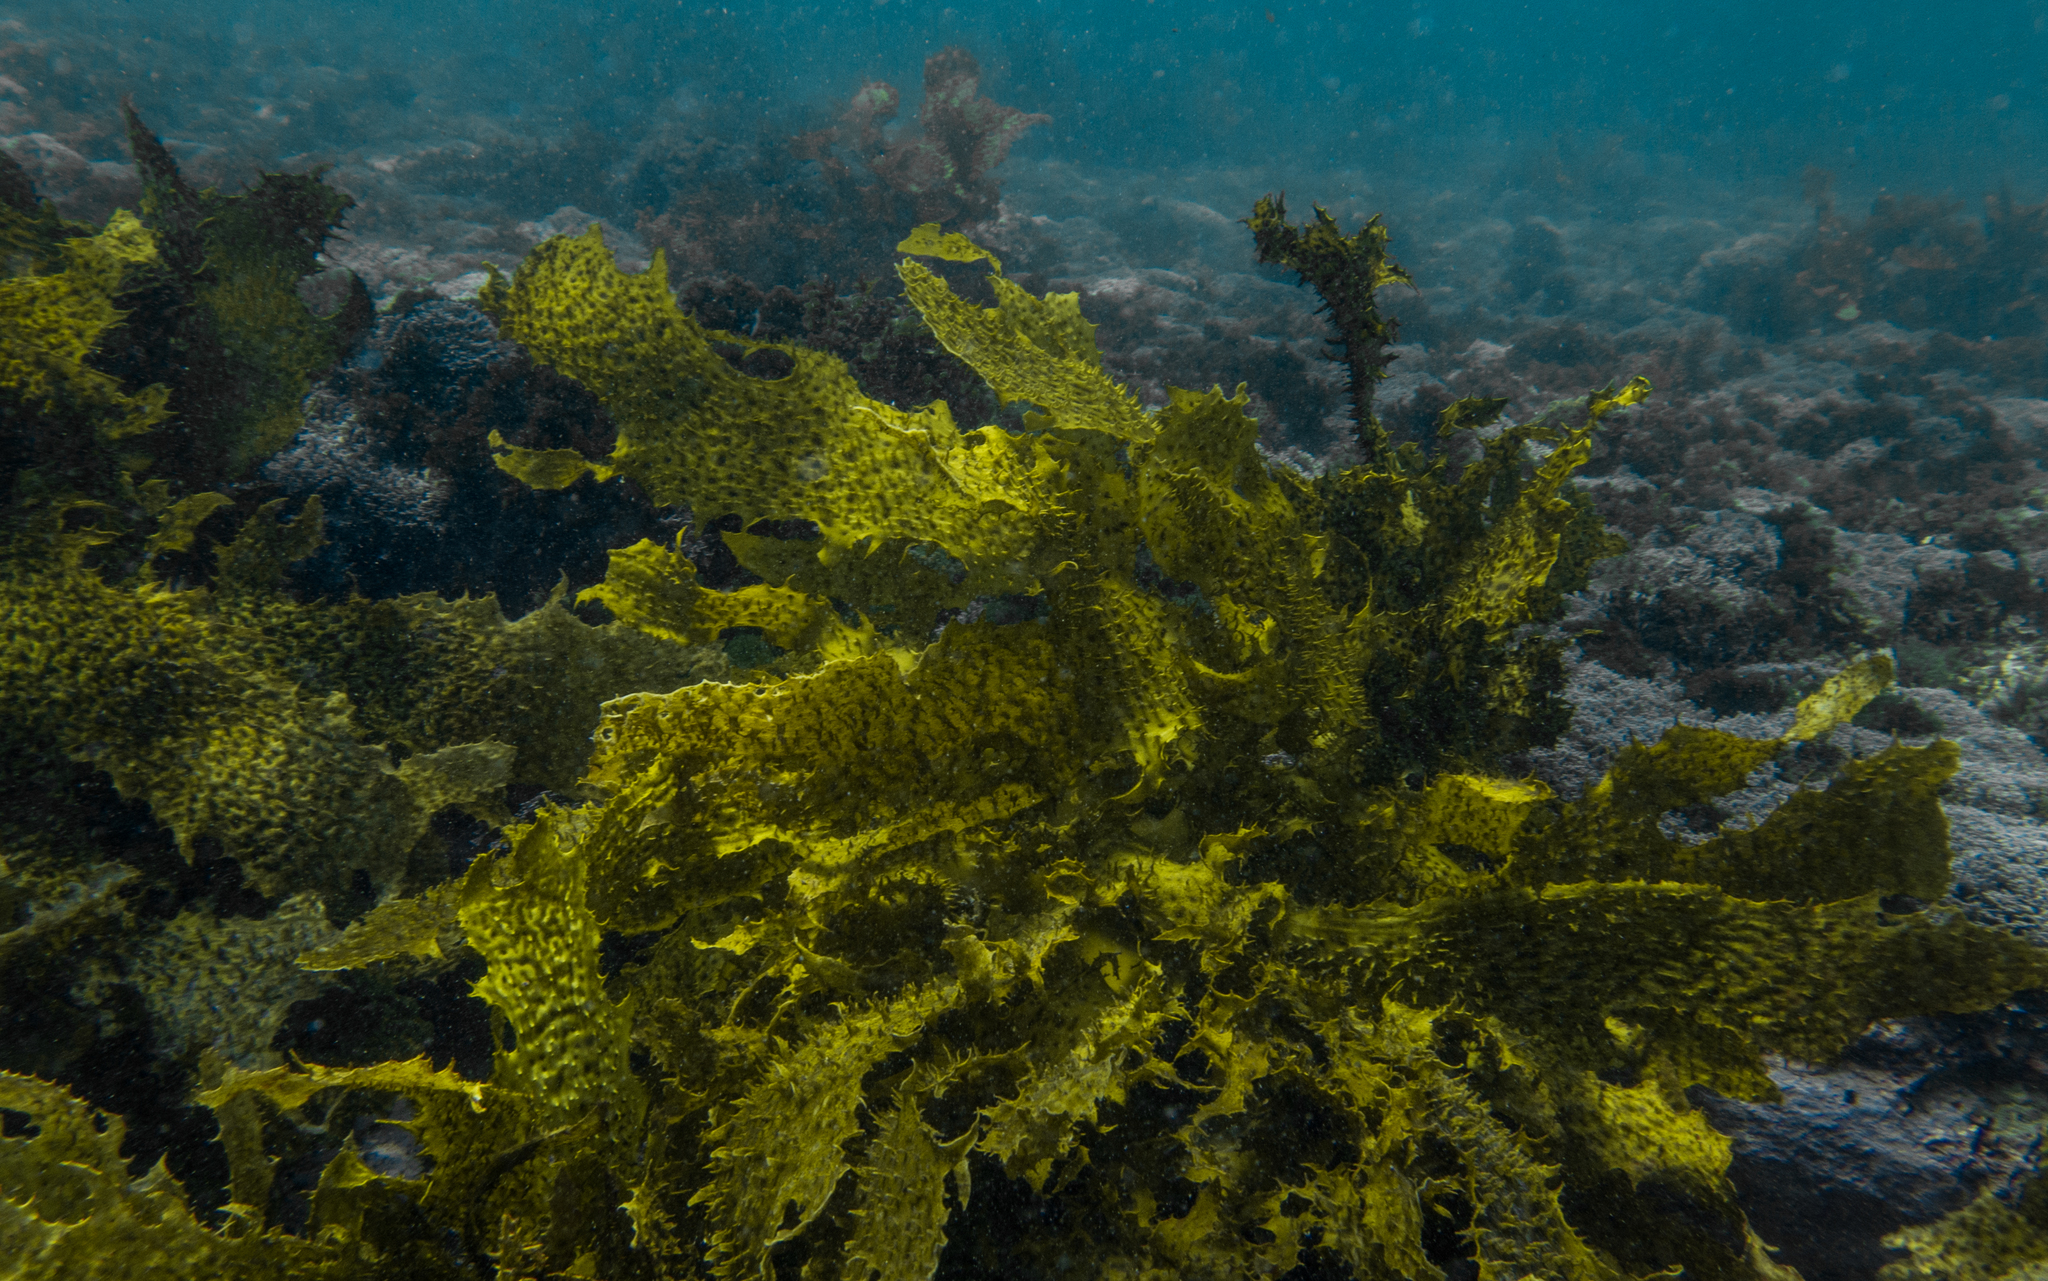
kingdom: Chromista
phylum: Ochrophyta
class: Phaeophyceae
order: Laminariales
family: Lessoniaceae
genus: Ecklonia
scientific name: Ecklonia radiata
